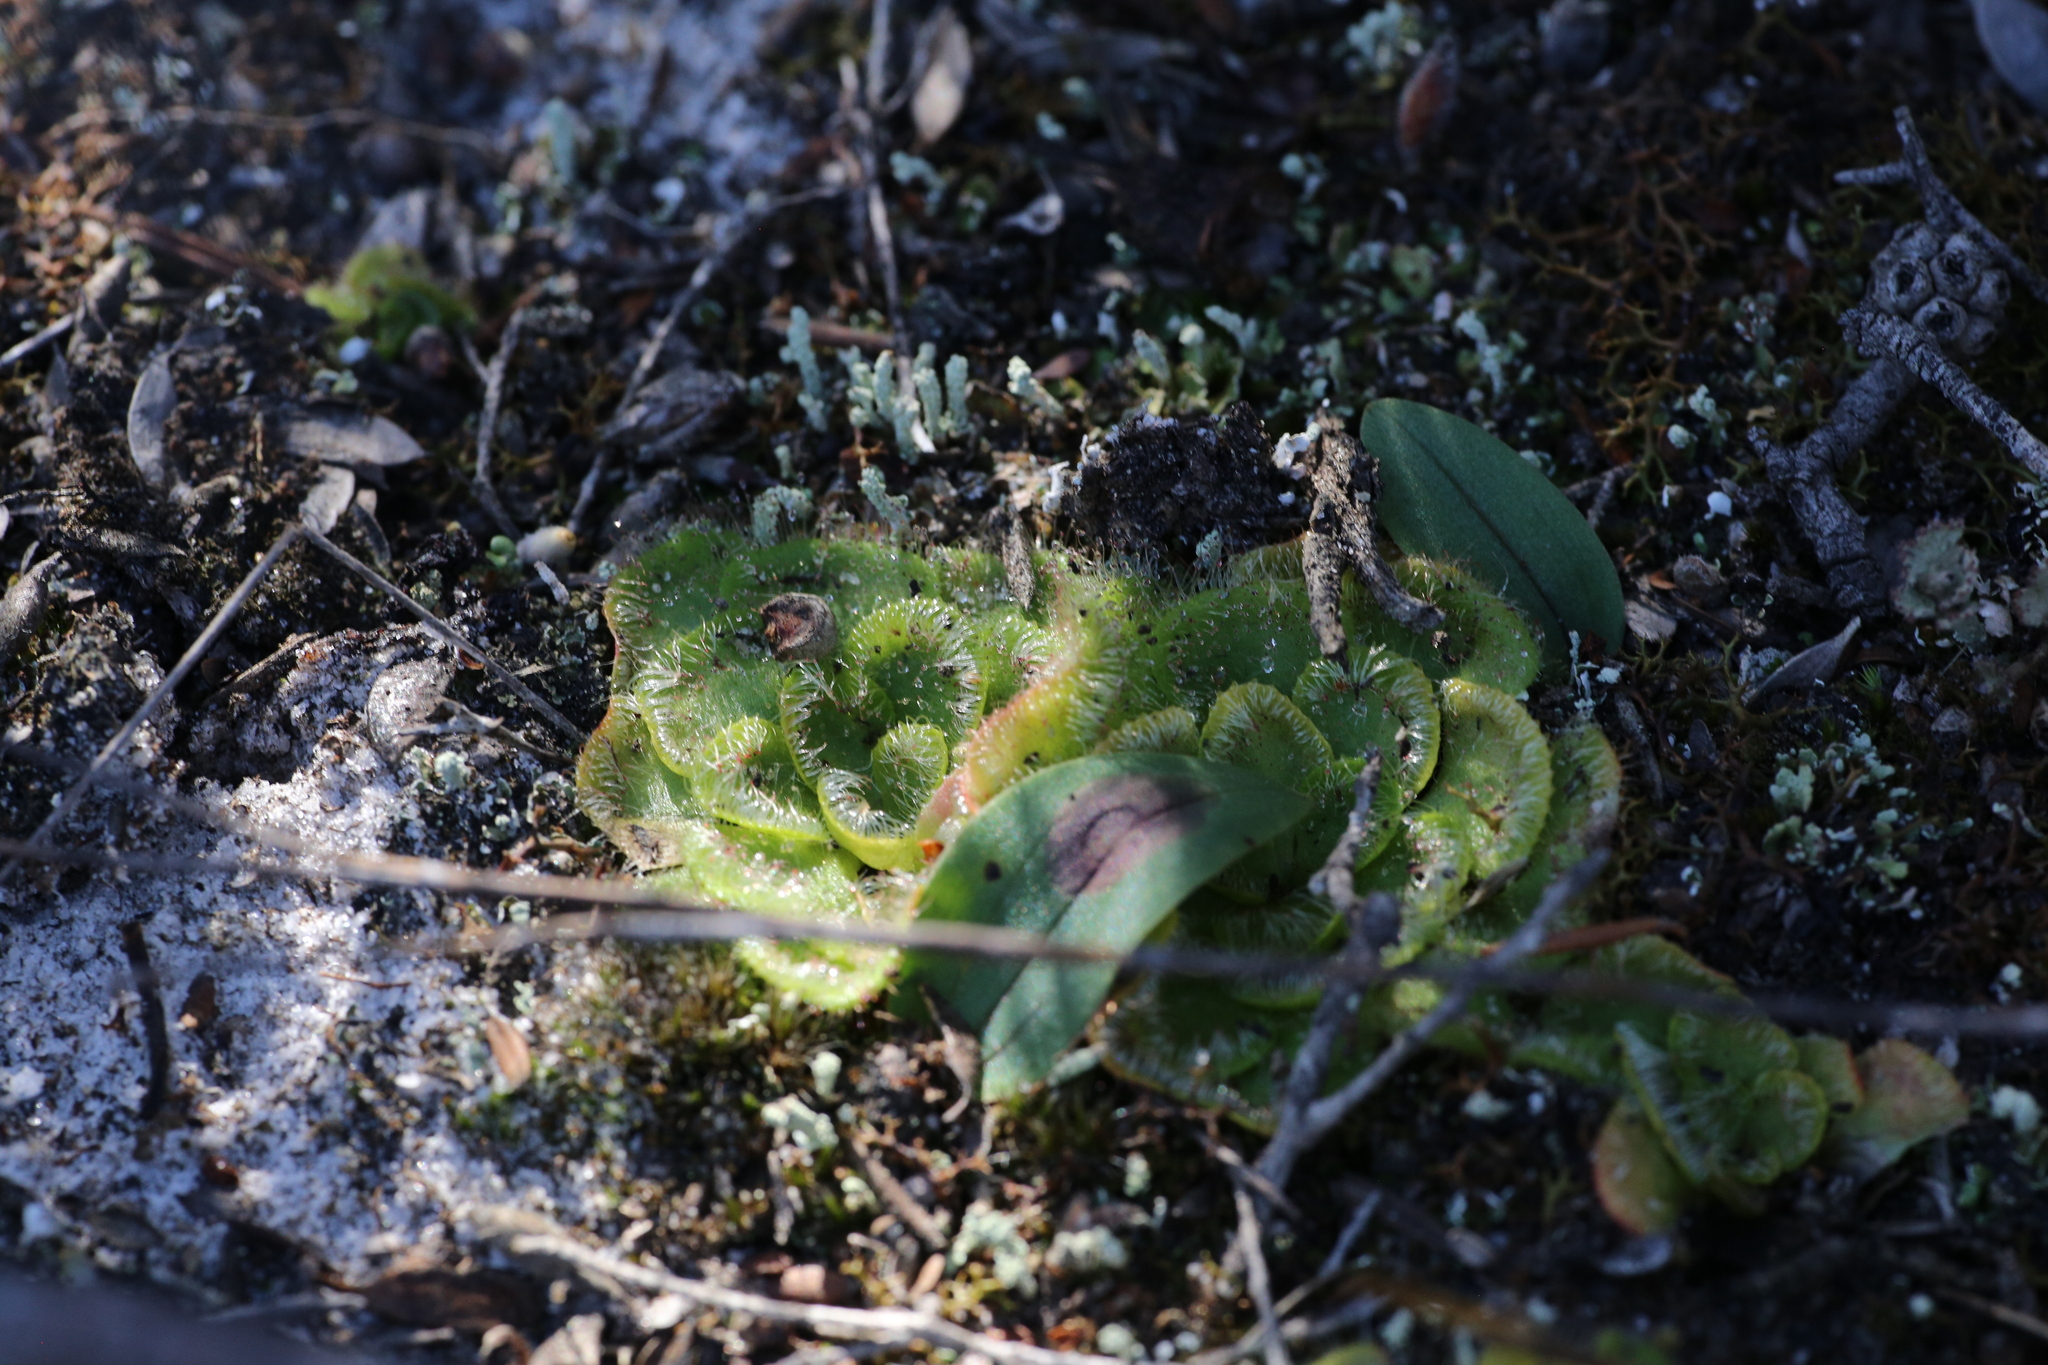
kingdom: Plantae
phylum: Tracheophyta
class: Magnoliopsida
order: Caryophyllales
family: Droseraceae
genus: Drosera
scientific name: Drosera zonaria
